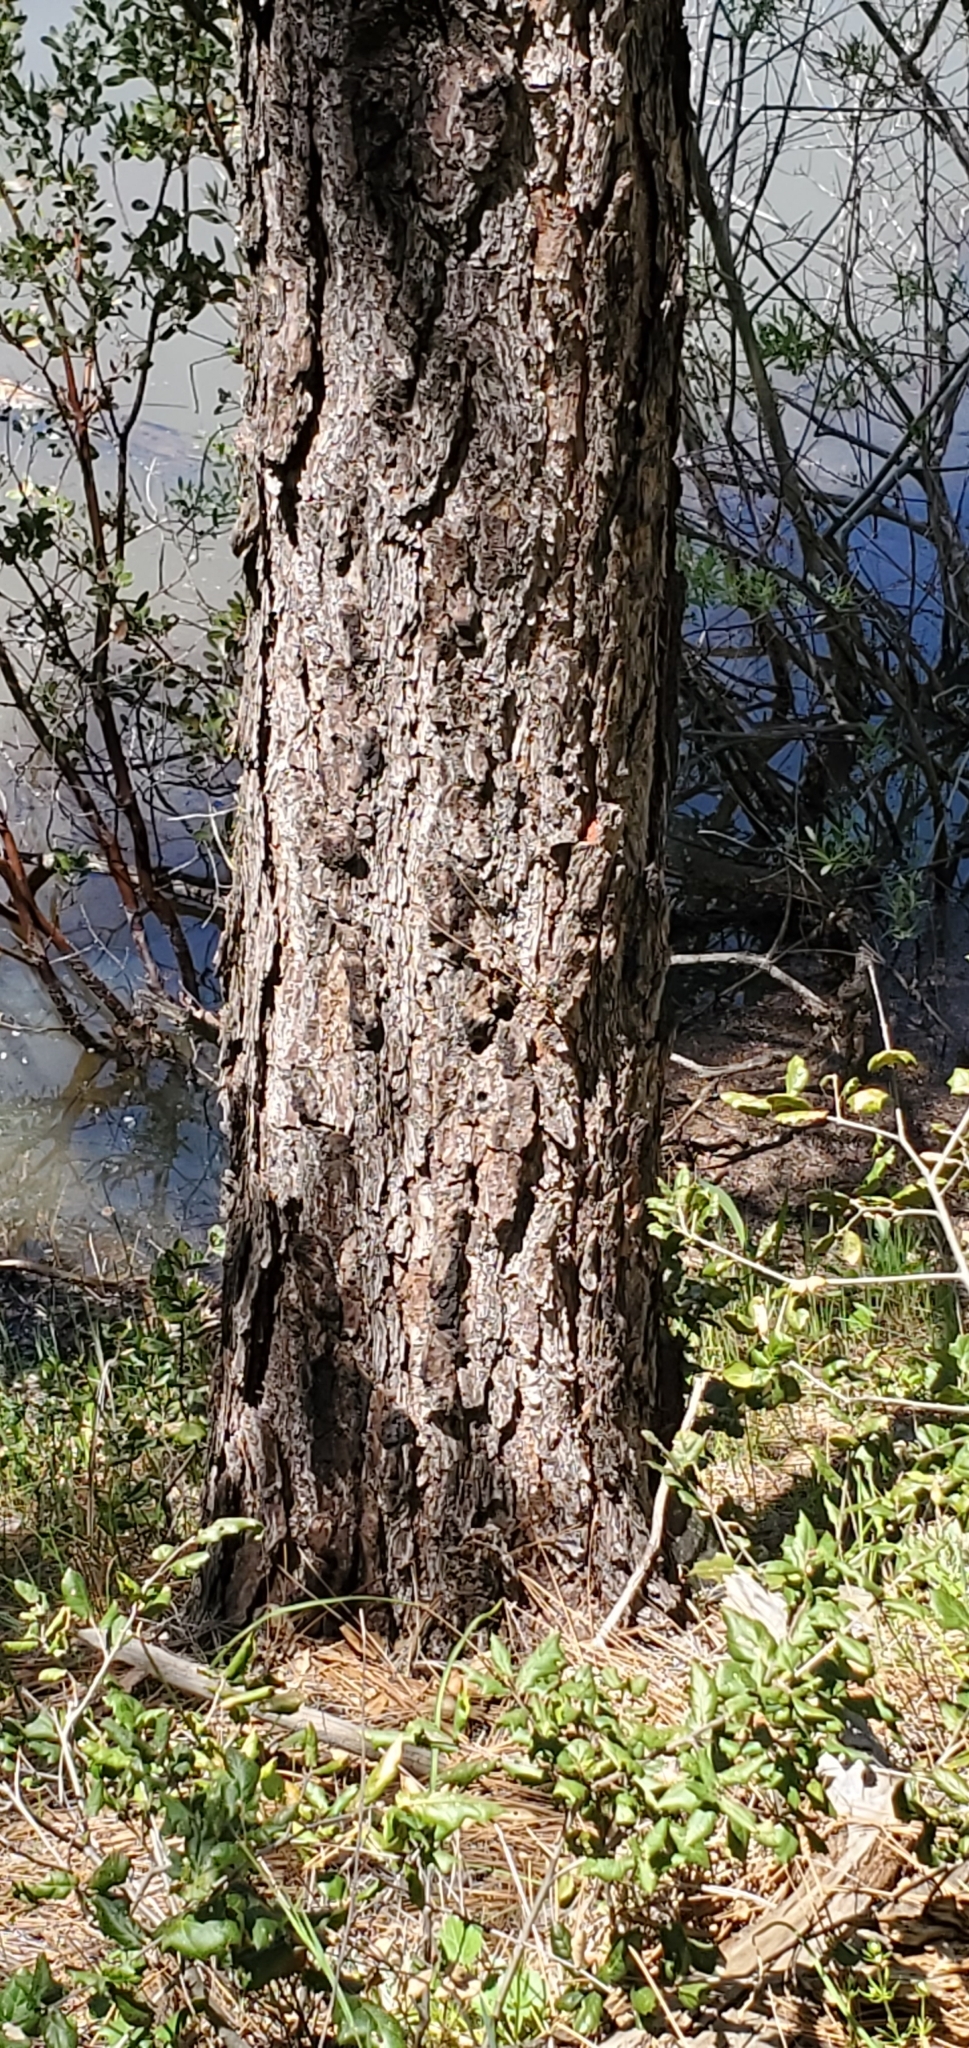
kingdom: Plantae
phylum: Tracheophyta
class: Pinopsida
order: Pinales
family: Pinaceae
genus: Pinus
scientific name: Pinus coulteri
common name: Coulter pine
